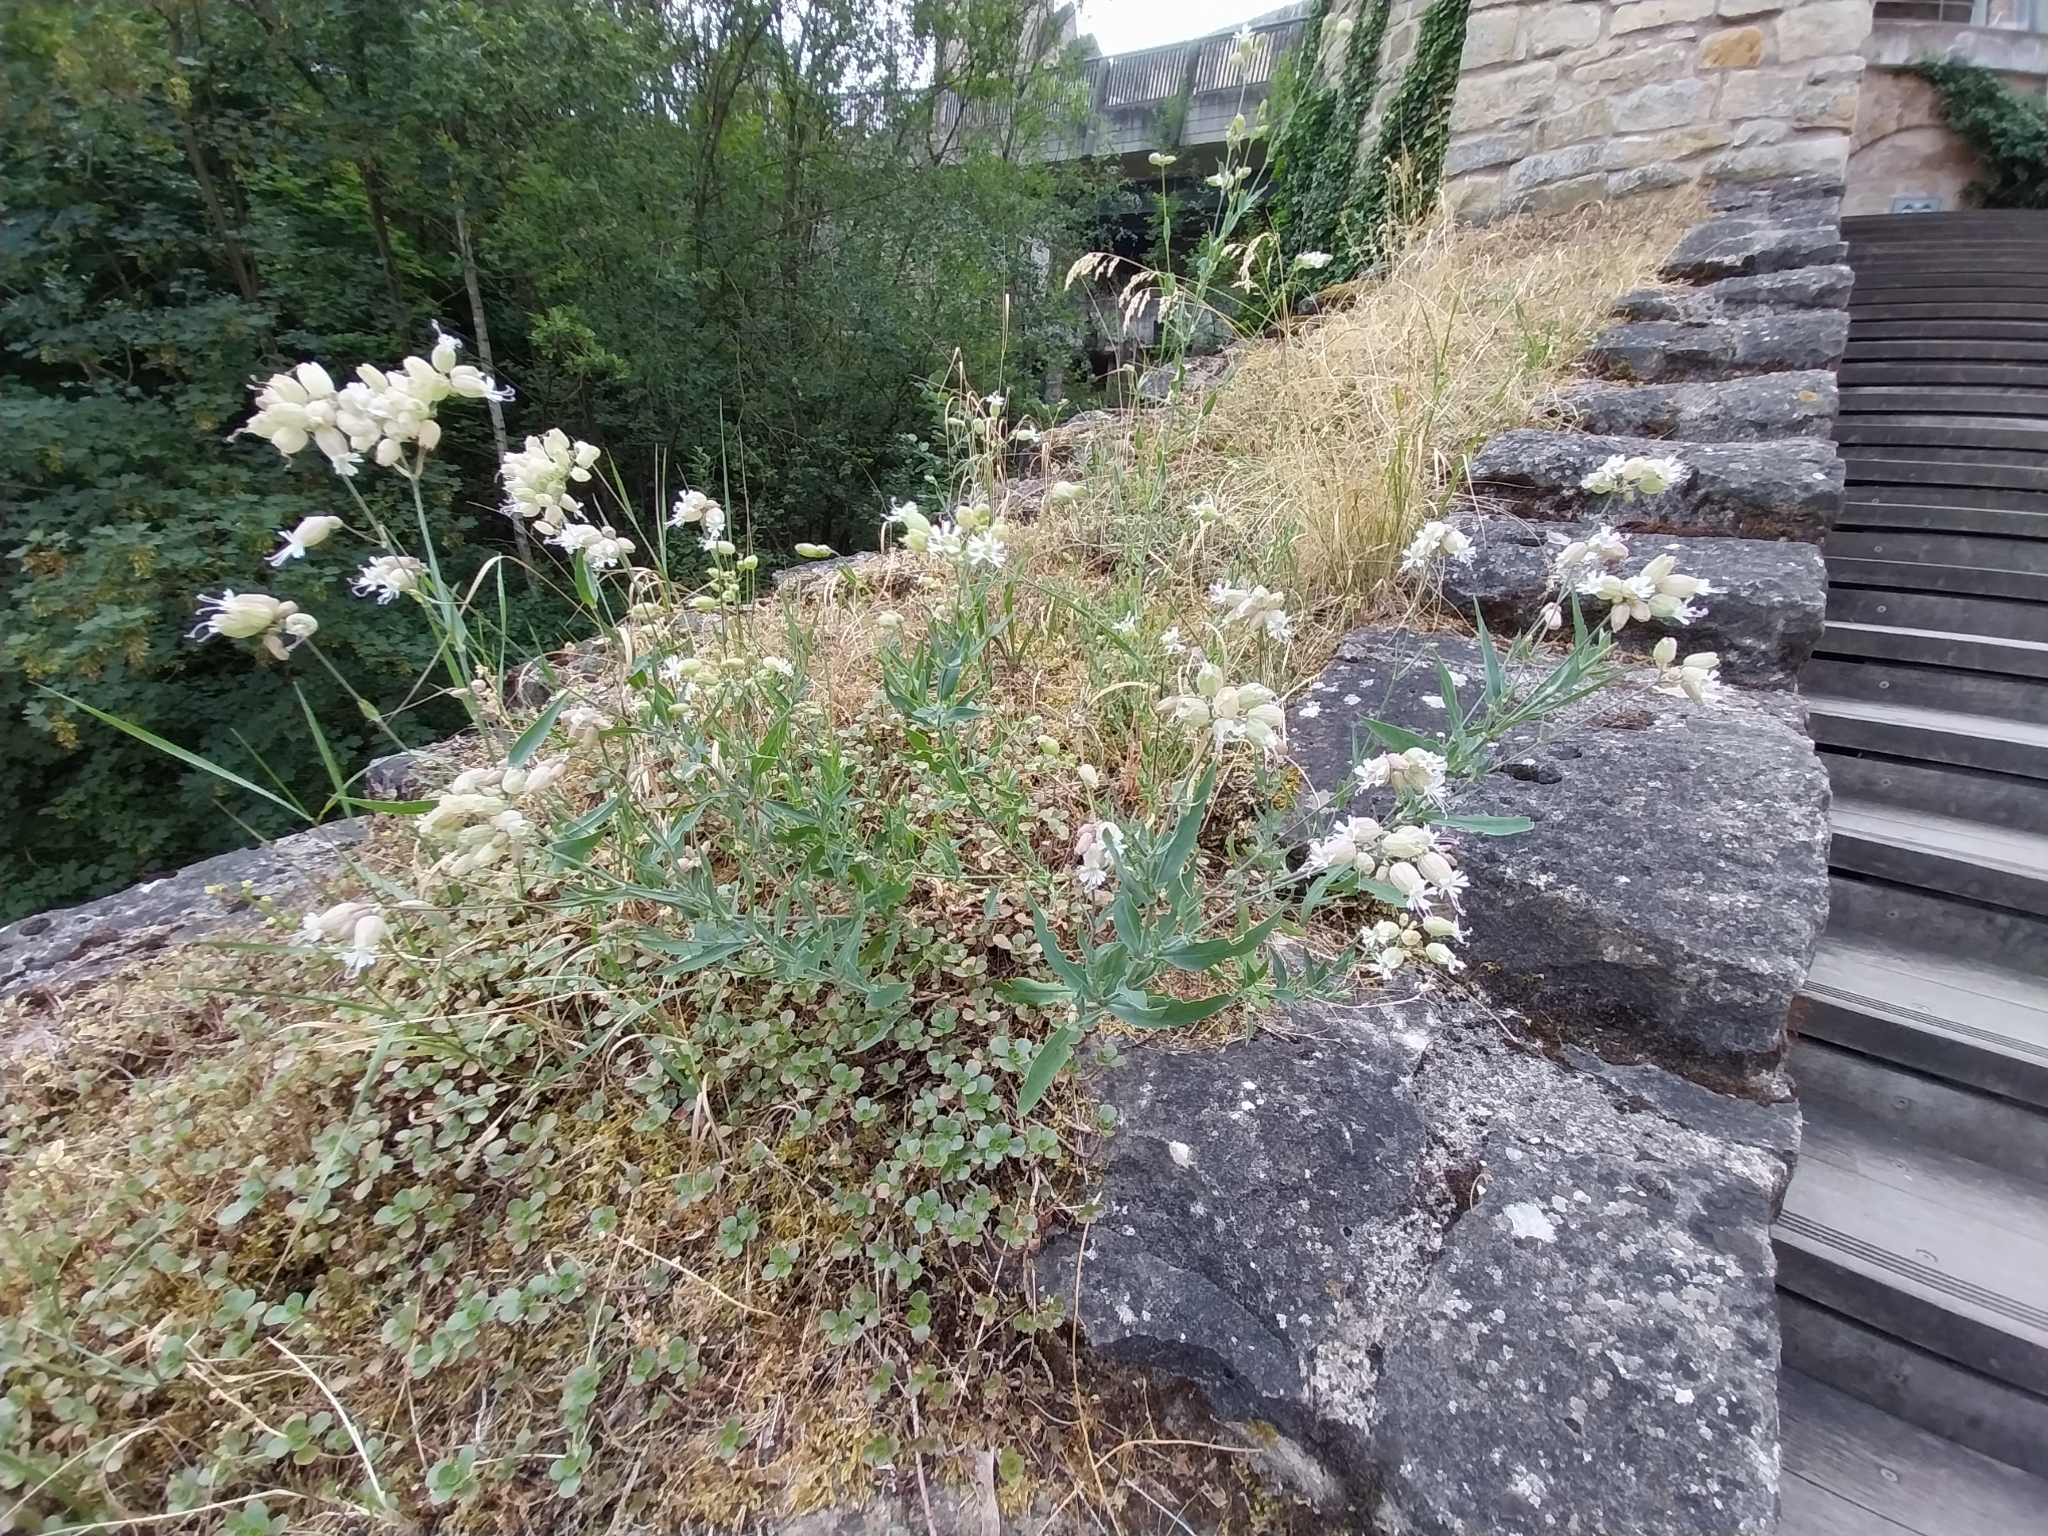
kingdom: Plantae
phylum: Tracheophyta
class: Magnoliopsida
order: Caryophyllales
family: Caryophyllaceae
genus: Silene
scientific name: Silene vulgaris
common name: Bladder campion
